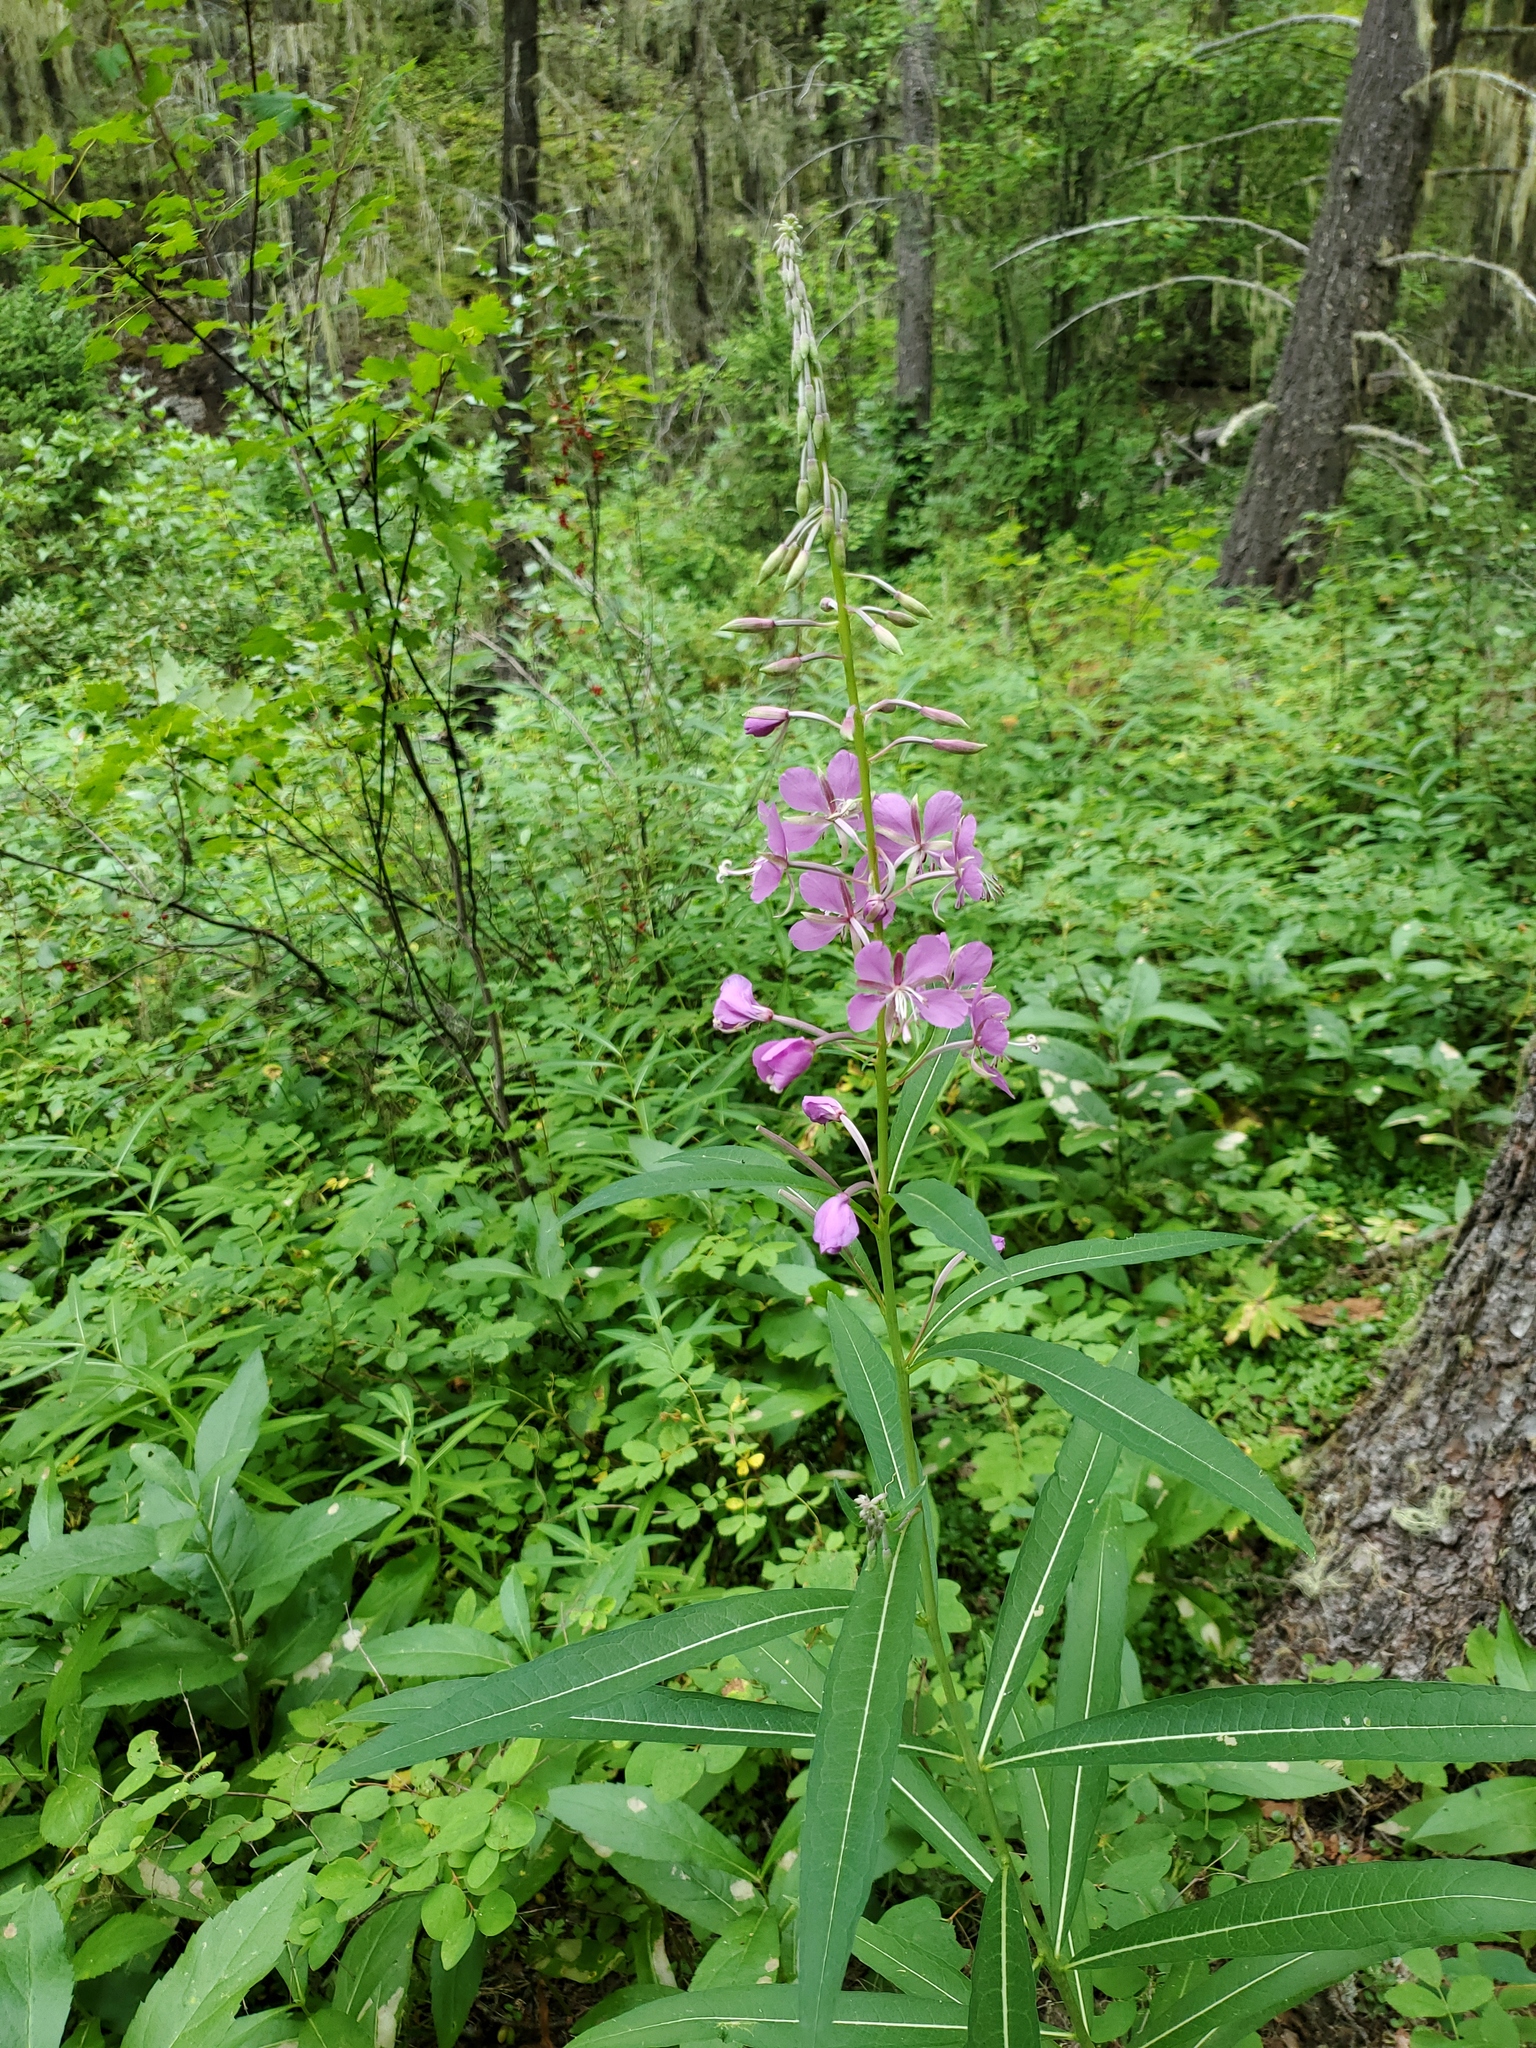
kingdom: Plantae
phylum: Tracheophyta
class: Magnoliopsida
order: Myrtales
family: Onagraceae
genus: Chamaenerion
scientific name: Chamaenerion angustifolium
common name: Fireweed
